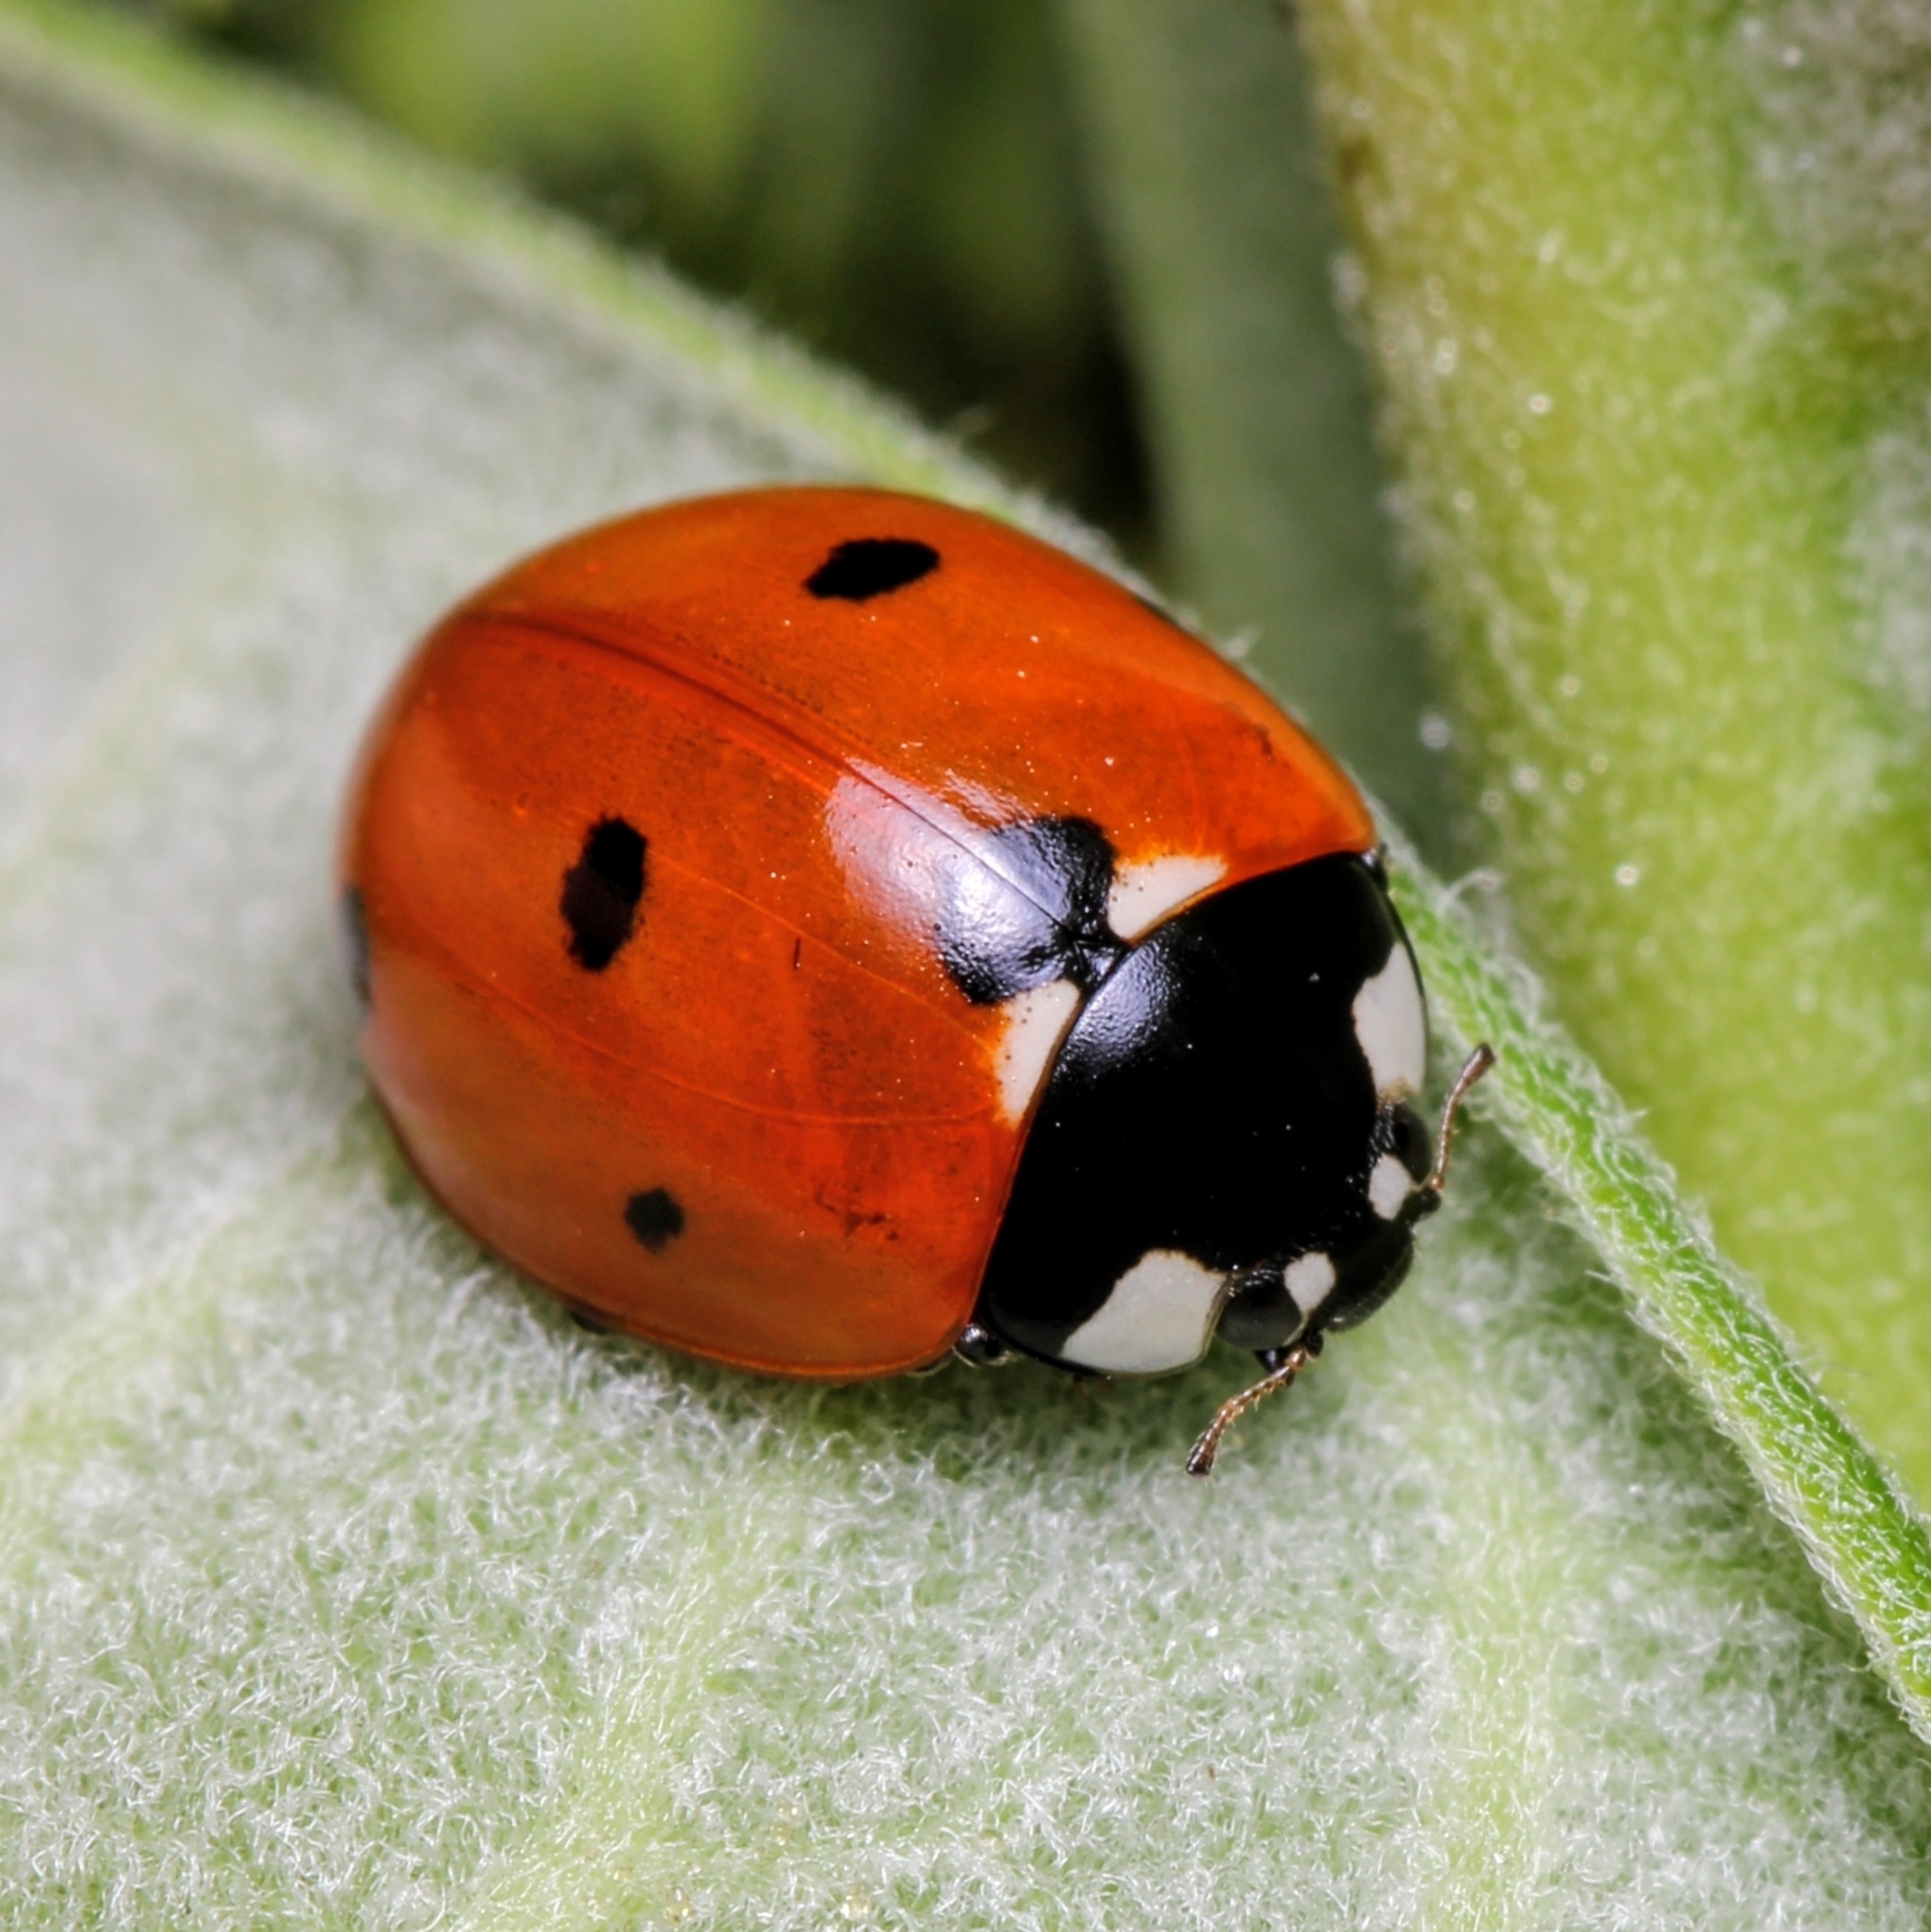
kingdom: Animalia
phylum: Arthropoda
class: Insecta
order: Coleoptera
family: Coccinellidae
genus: Coccinella
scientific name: Coccinella septempunctata
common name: Sevenspotted lady beetle
